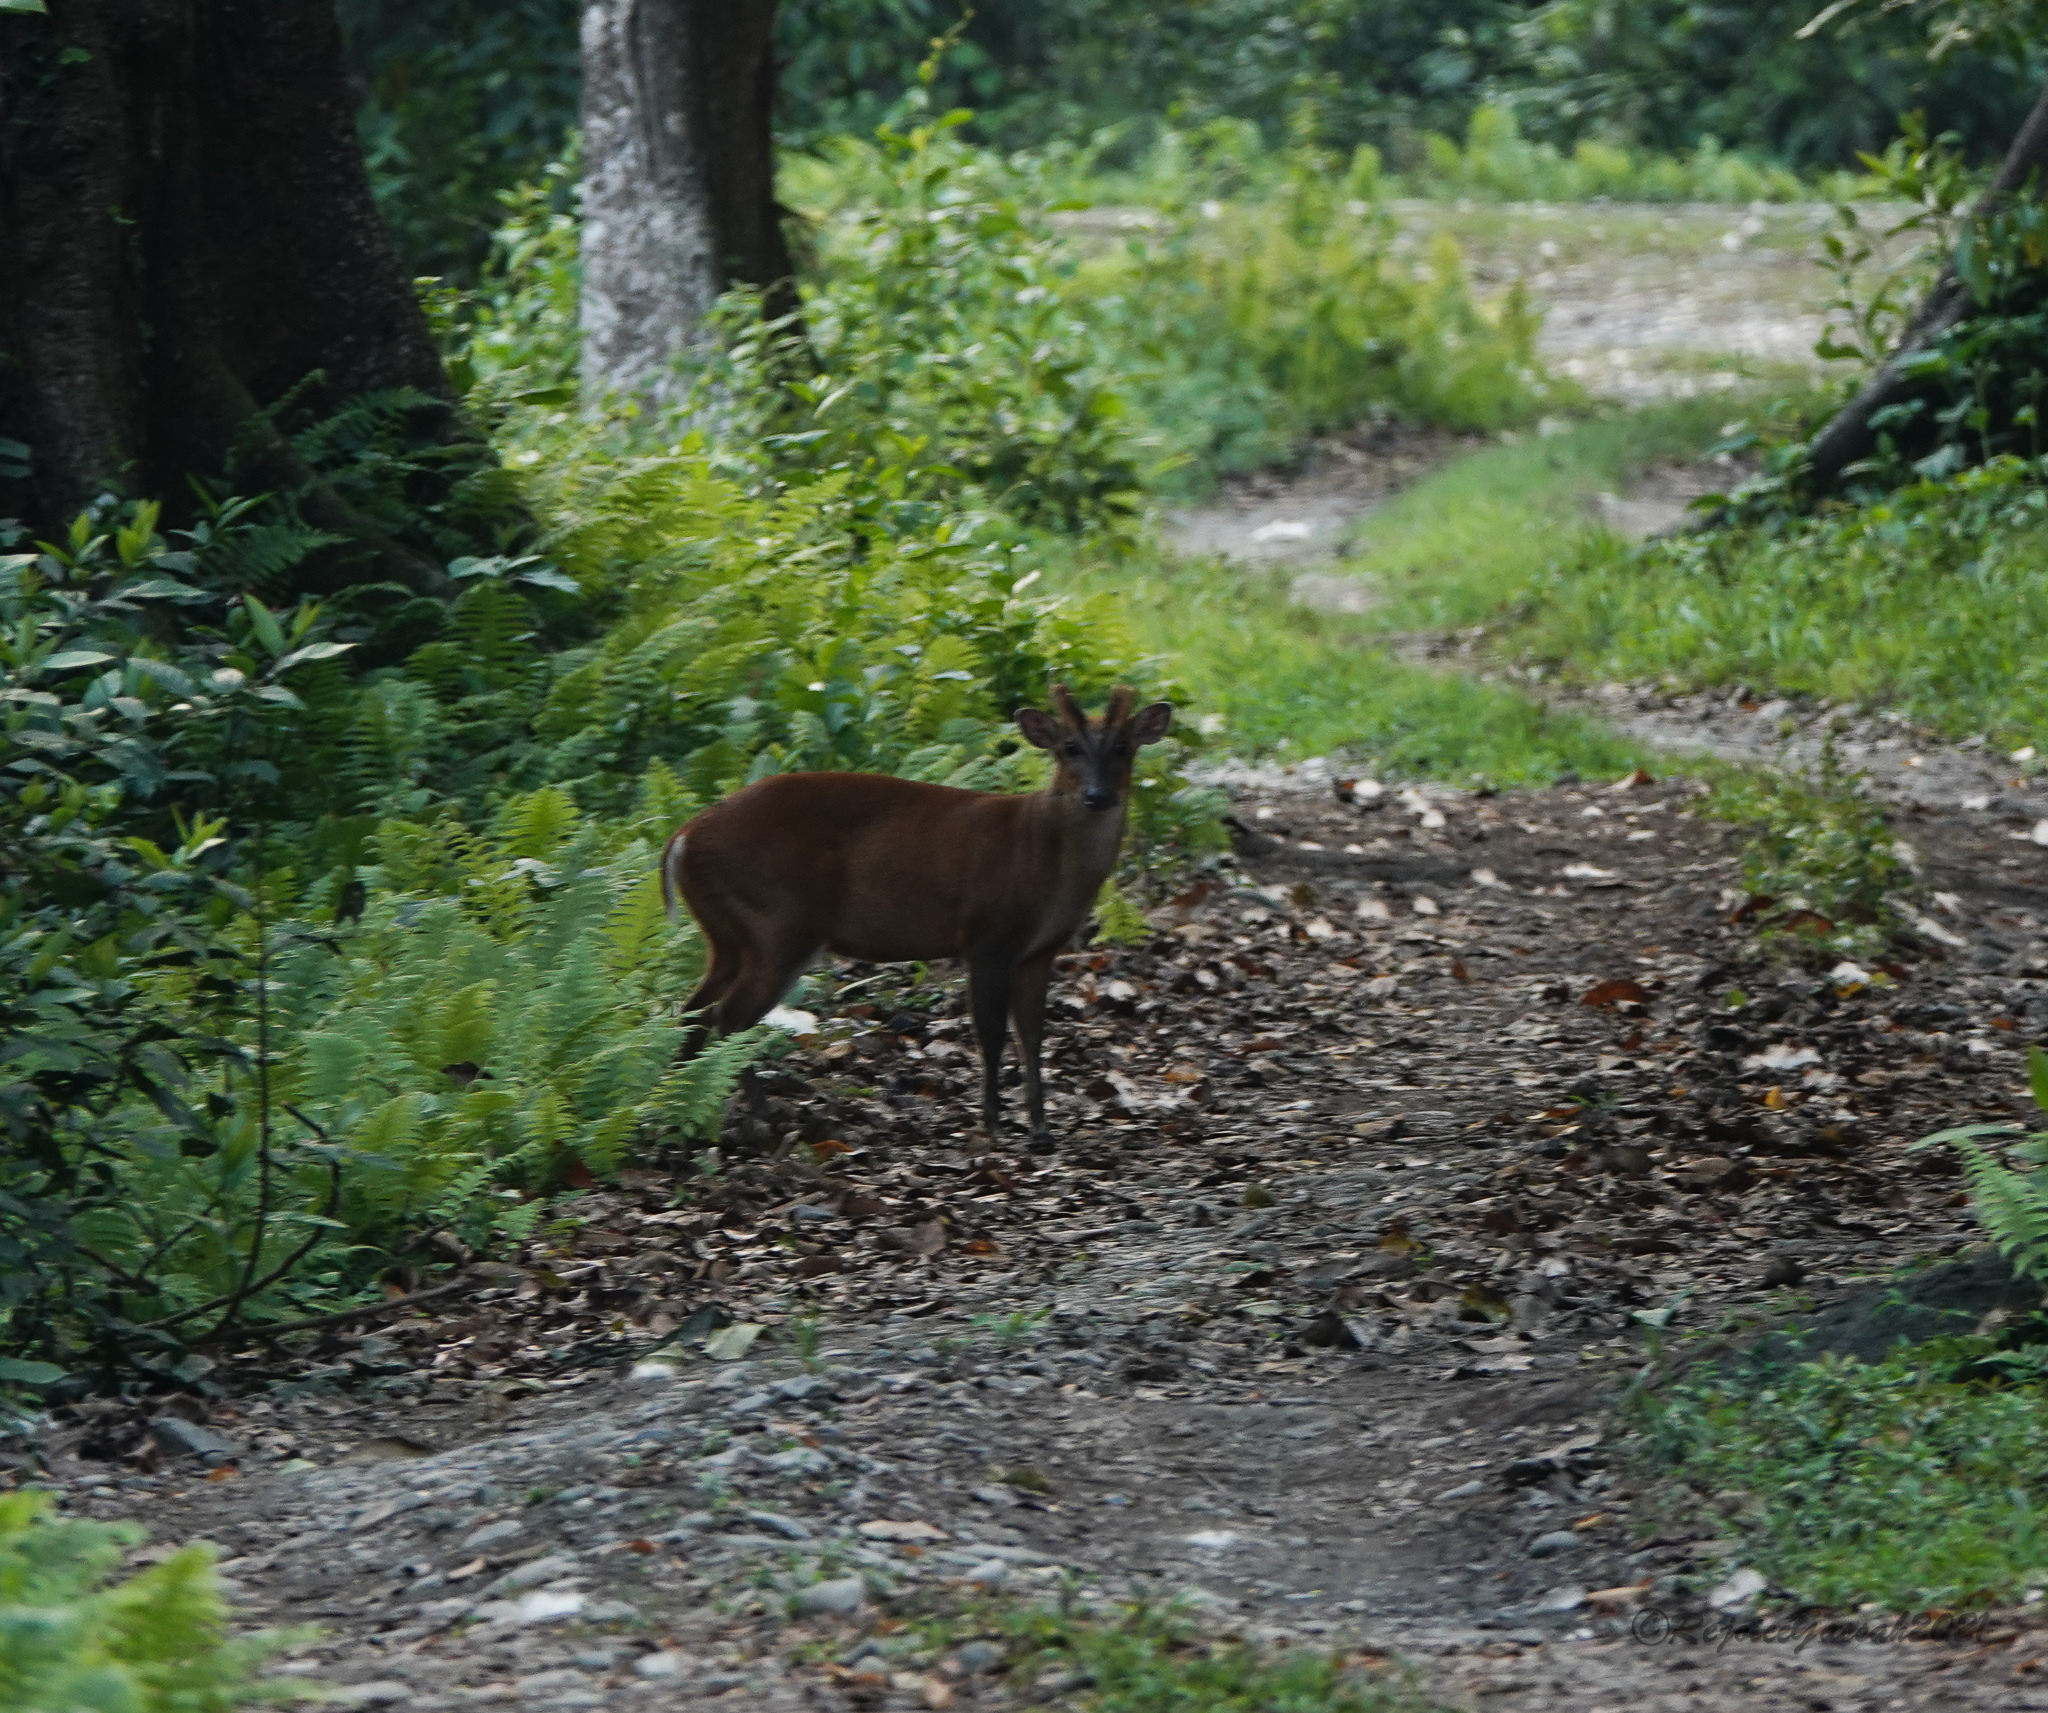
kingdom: Animalia
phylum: Chordata
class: Mammalia
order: Artiodactyla
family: Cervidae
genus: Muntiacus
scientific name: Muntiacus muntjak
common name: Indian muntjac
